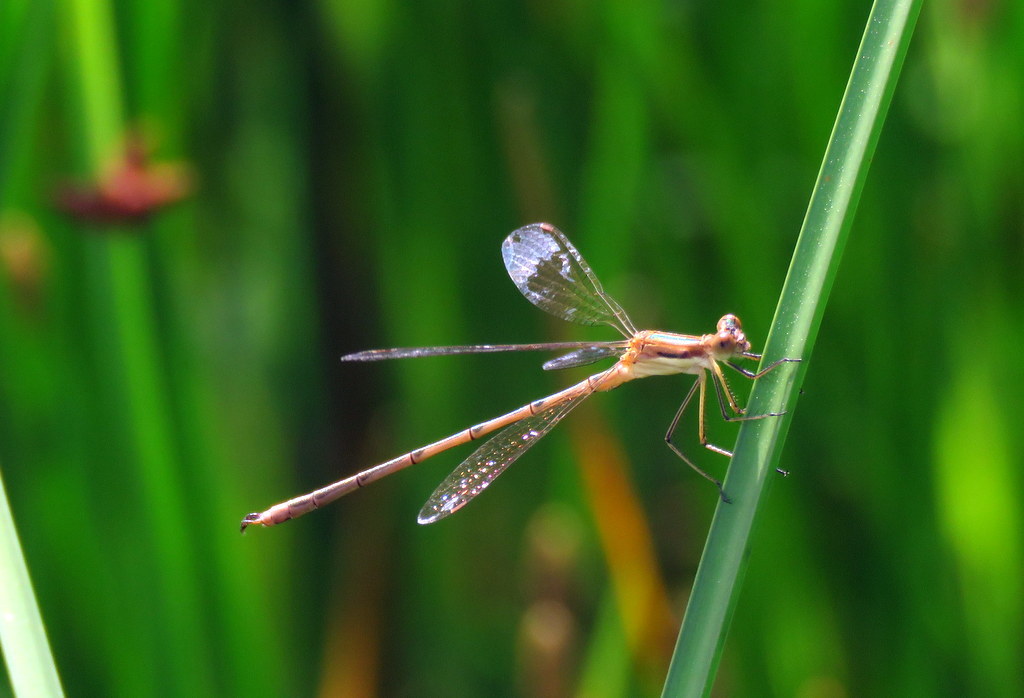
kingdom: Animalia
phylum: Arthropoda
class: Insecta
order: Odonata
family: Lestidae
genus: Lestes
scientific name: Lestes undulatus
